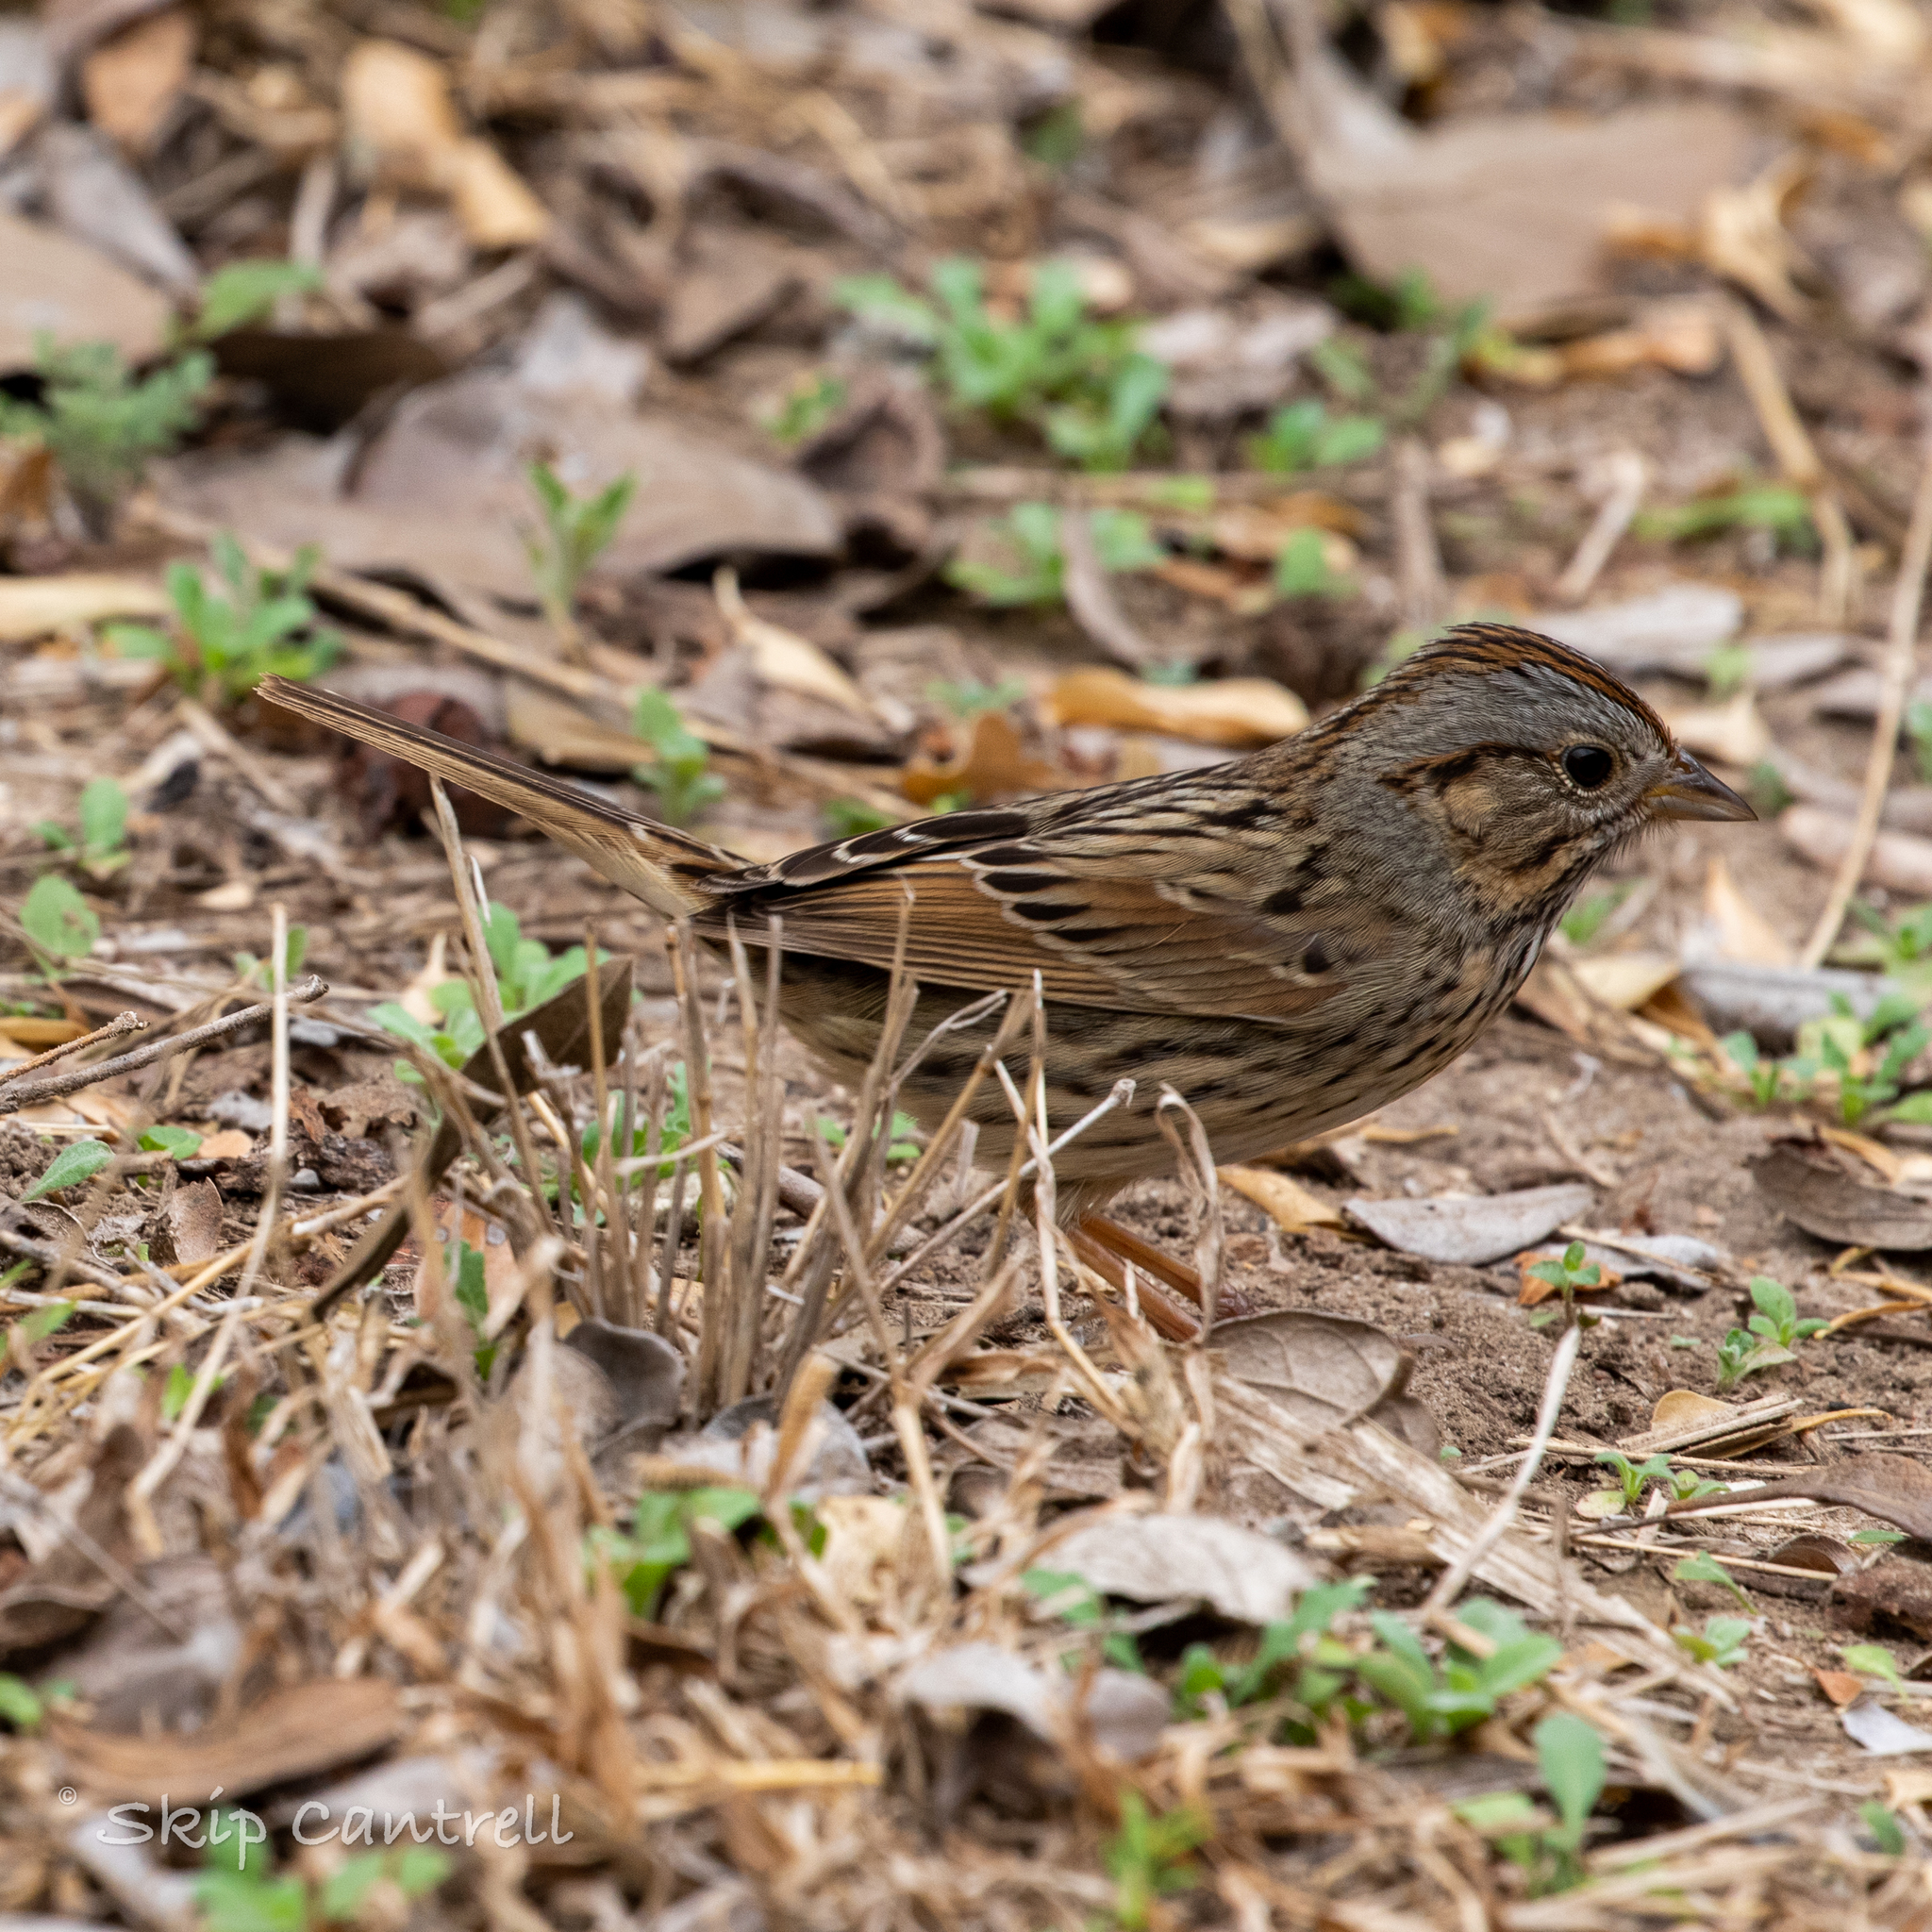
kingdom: Animalia
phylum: Chordata
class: Aves
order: Passeriformes
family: Passerellidae
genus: Melospiza
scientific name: Melospiza lincolnii
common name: Lincoln's sparrow
